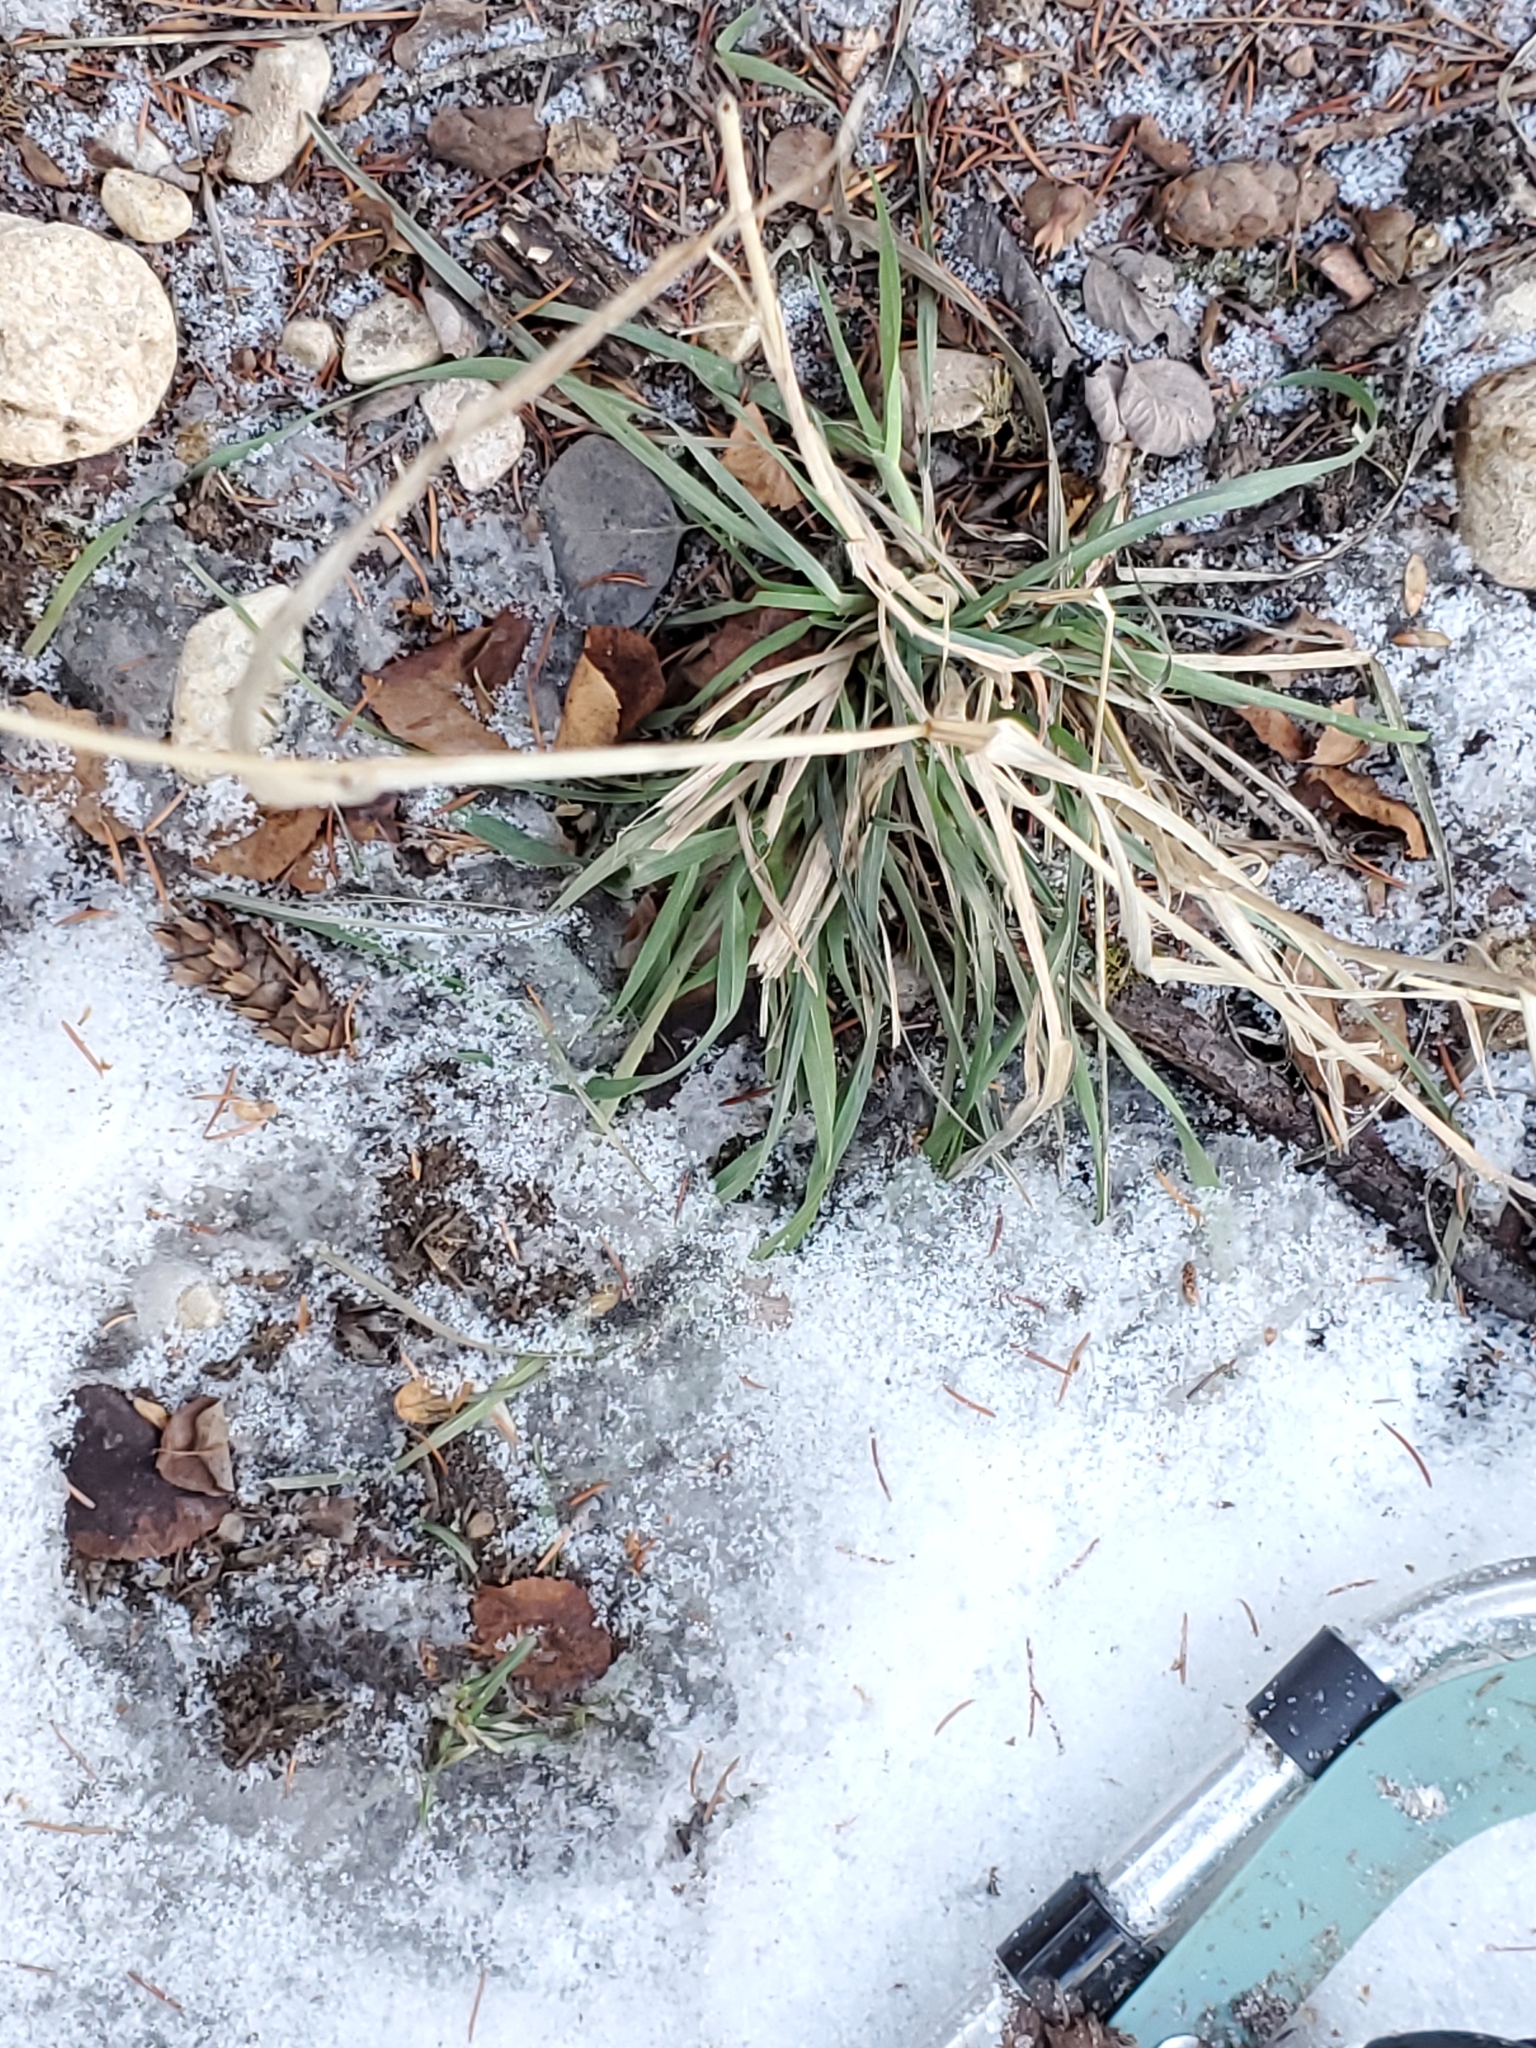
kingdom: Plantae
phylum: Tracheophyta
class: Liliopsida
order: Poales
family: Poaceae
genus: Dactylis
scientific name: Dactylis glomerata
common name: Orchardgrass
